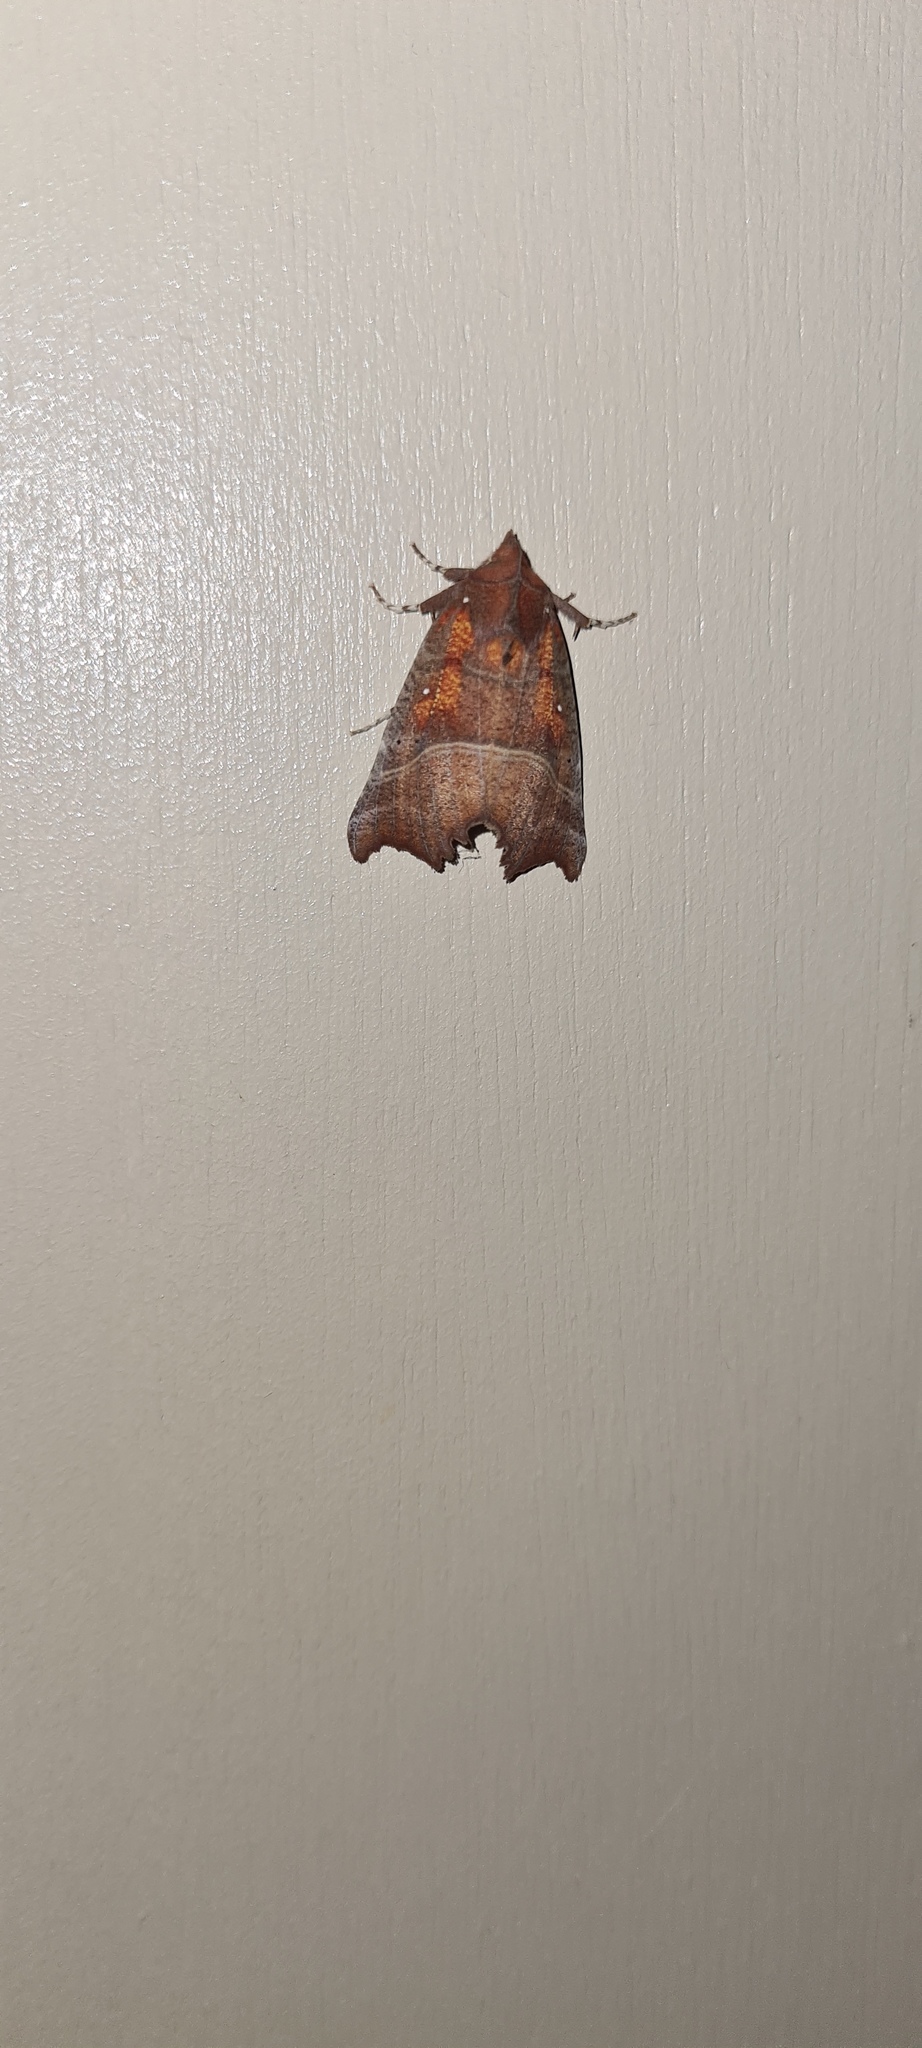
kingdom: Animalia
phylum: Arthropoda
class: Insecta
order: Lepidoptera
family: Erebidae
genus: Scoliopteryx
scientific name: Scoliopteryx libatrix
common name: Herald
